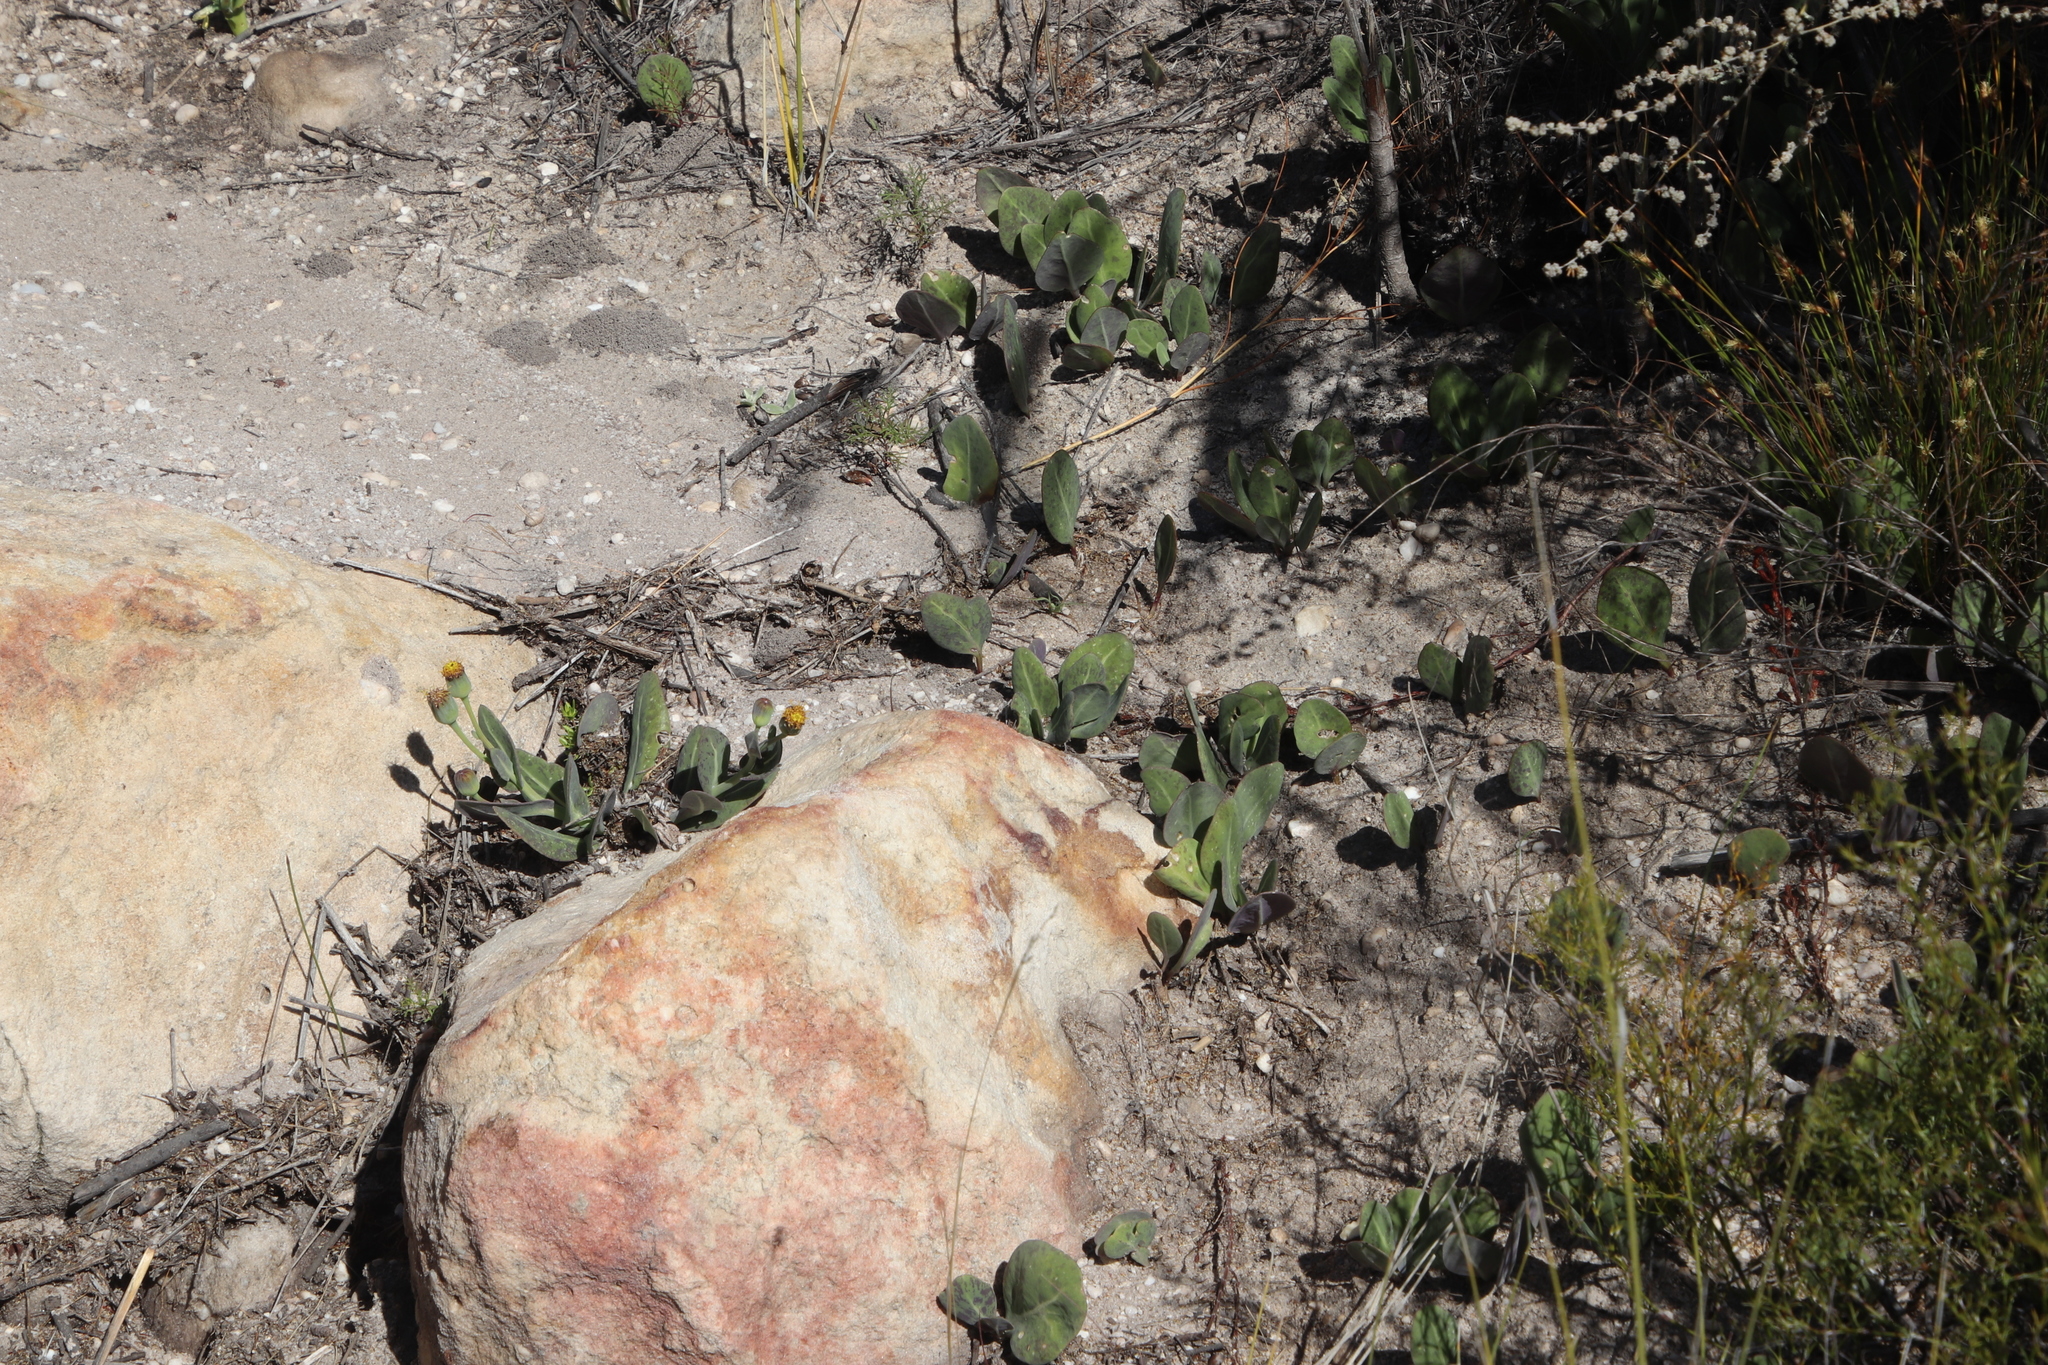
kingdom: Plantae
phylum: Tracheophyta
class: Magnoliopsida
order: Asterales
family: Asteraceae
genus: Othonna
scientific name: Othonna gymnodiscus
